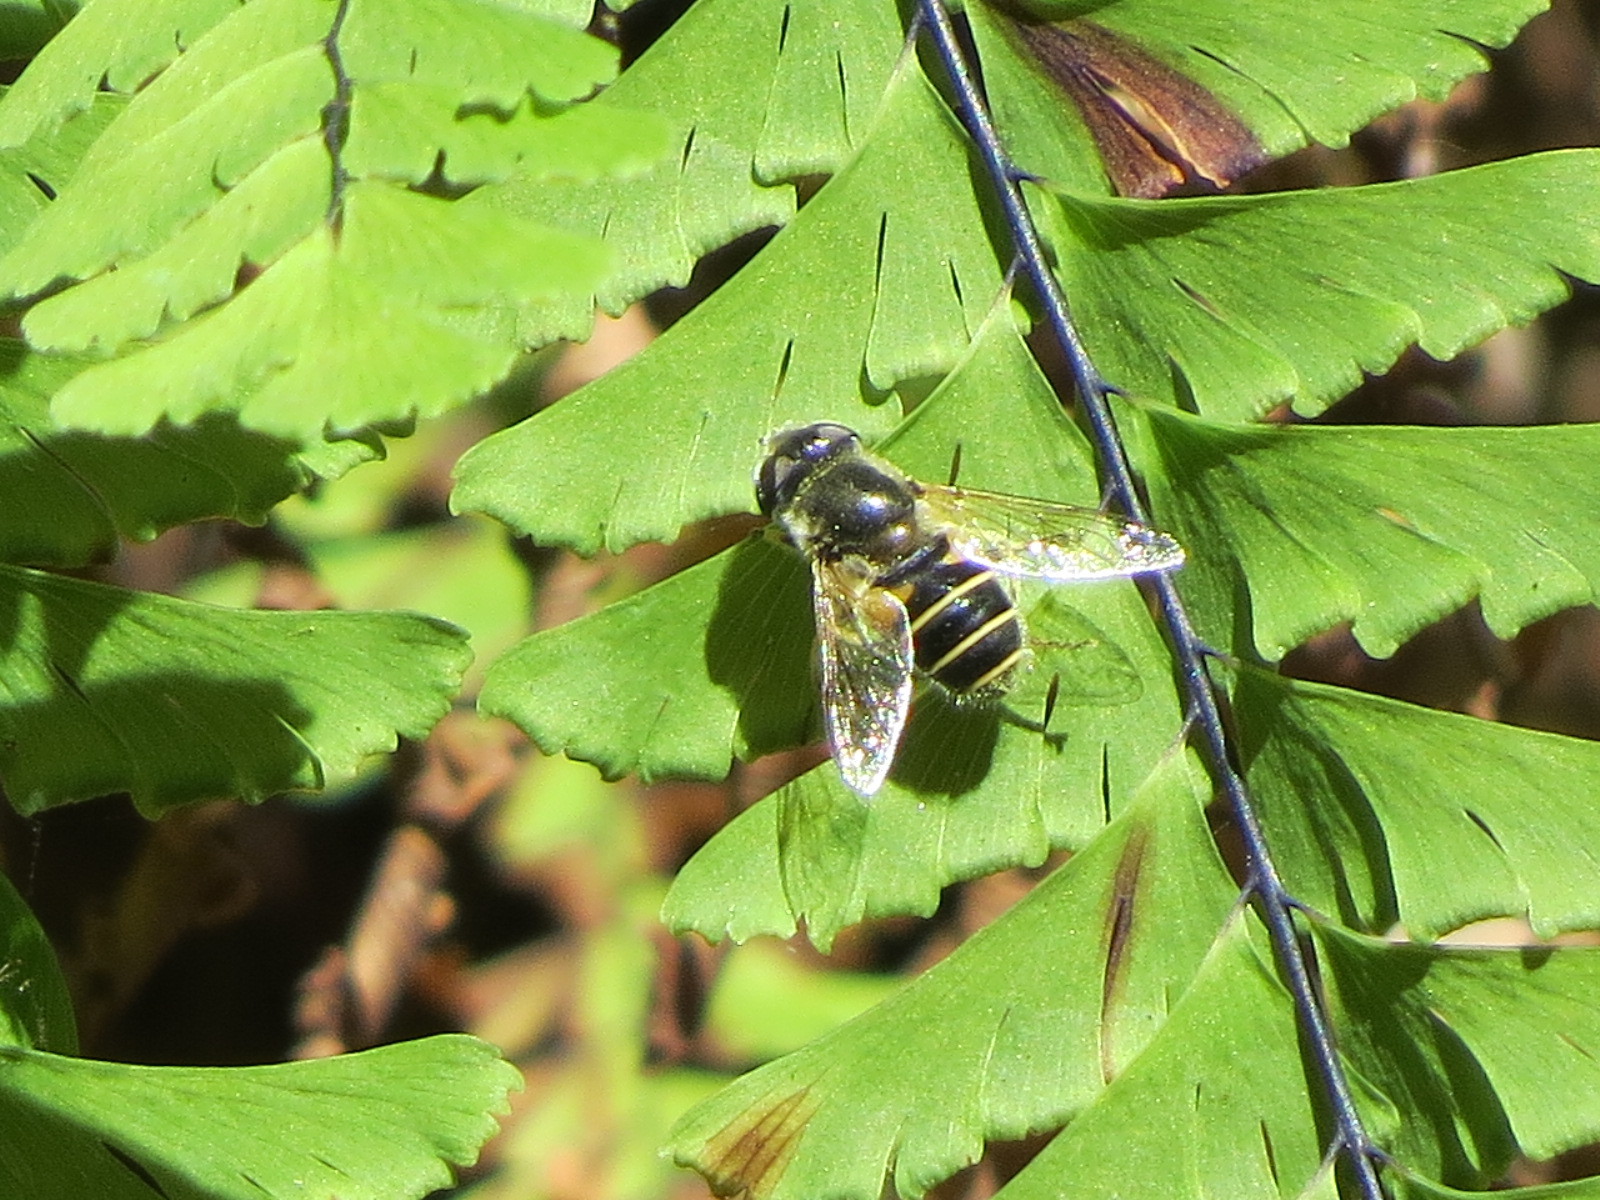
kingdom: Animalia
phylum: Arthropoda
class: Insecta
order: Diptera
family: Syrphidae
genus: Eristalis
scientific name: Eristalis hirta
